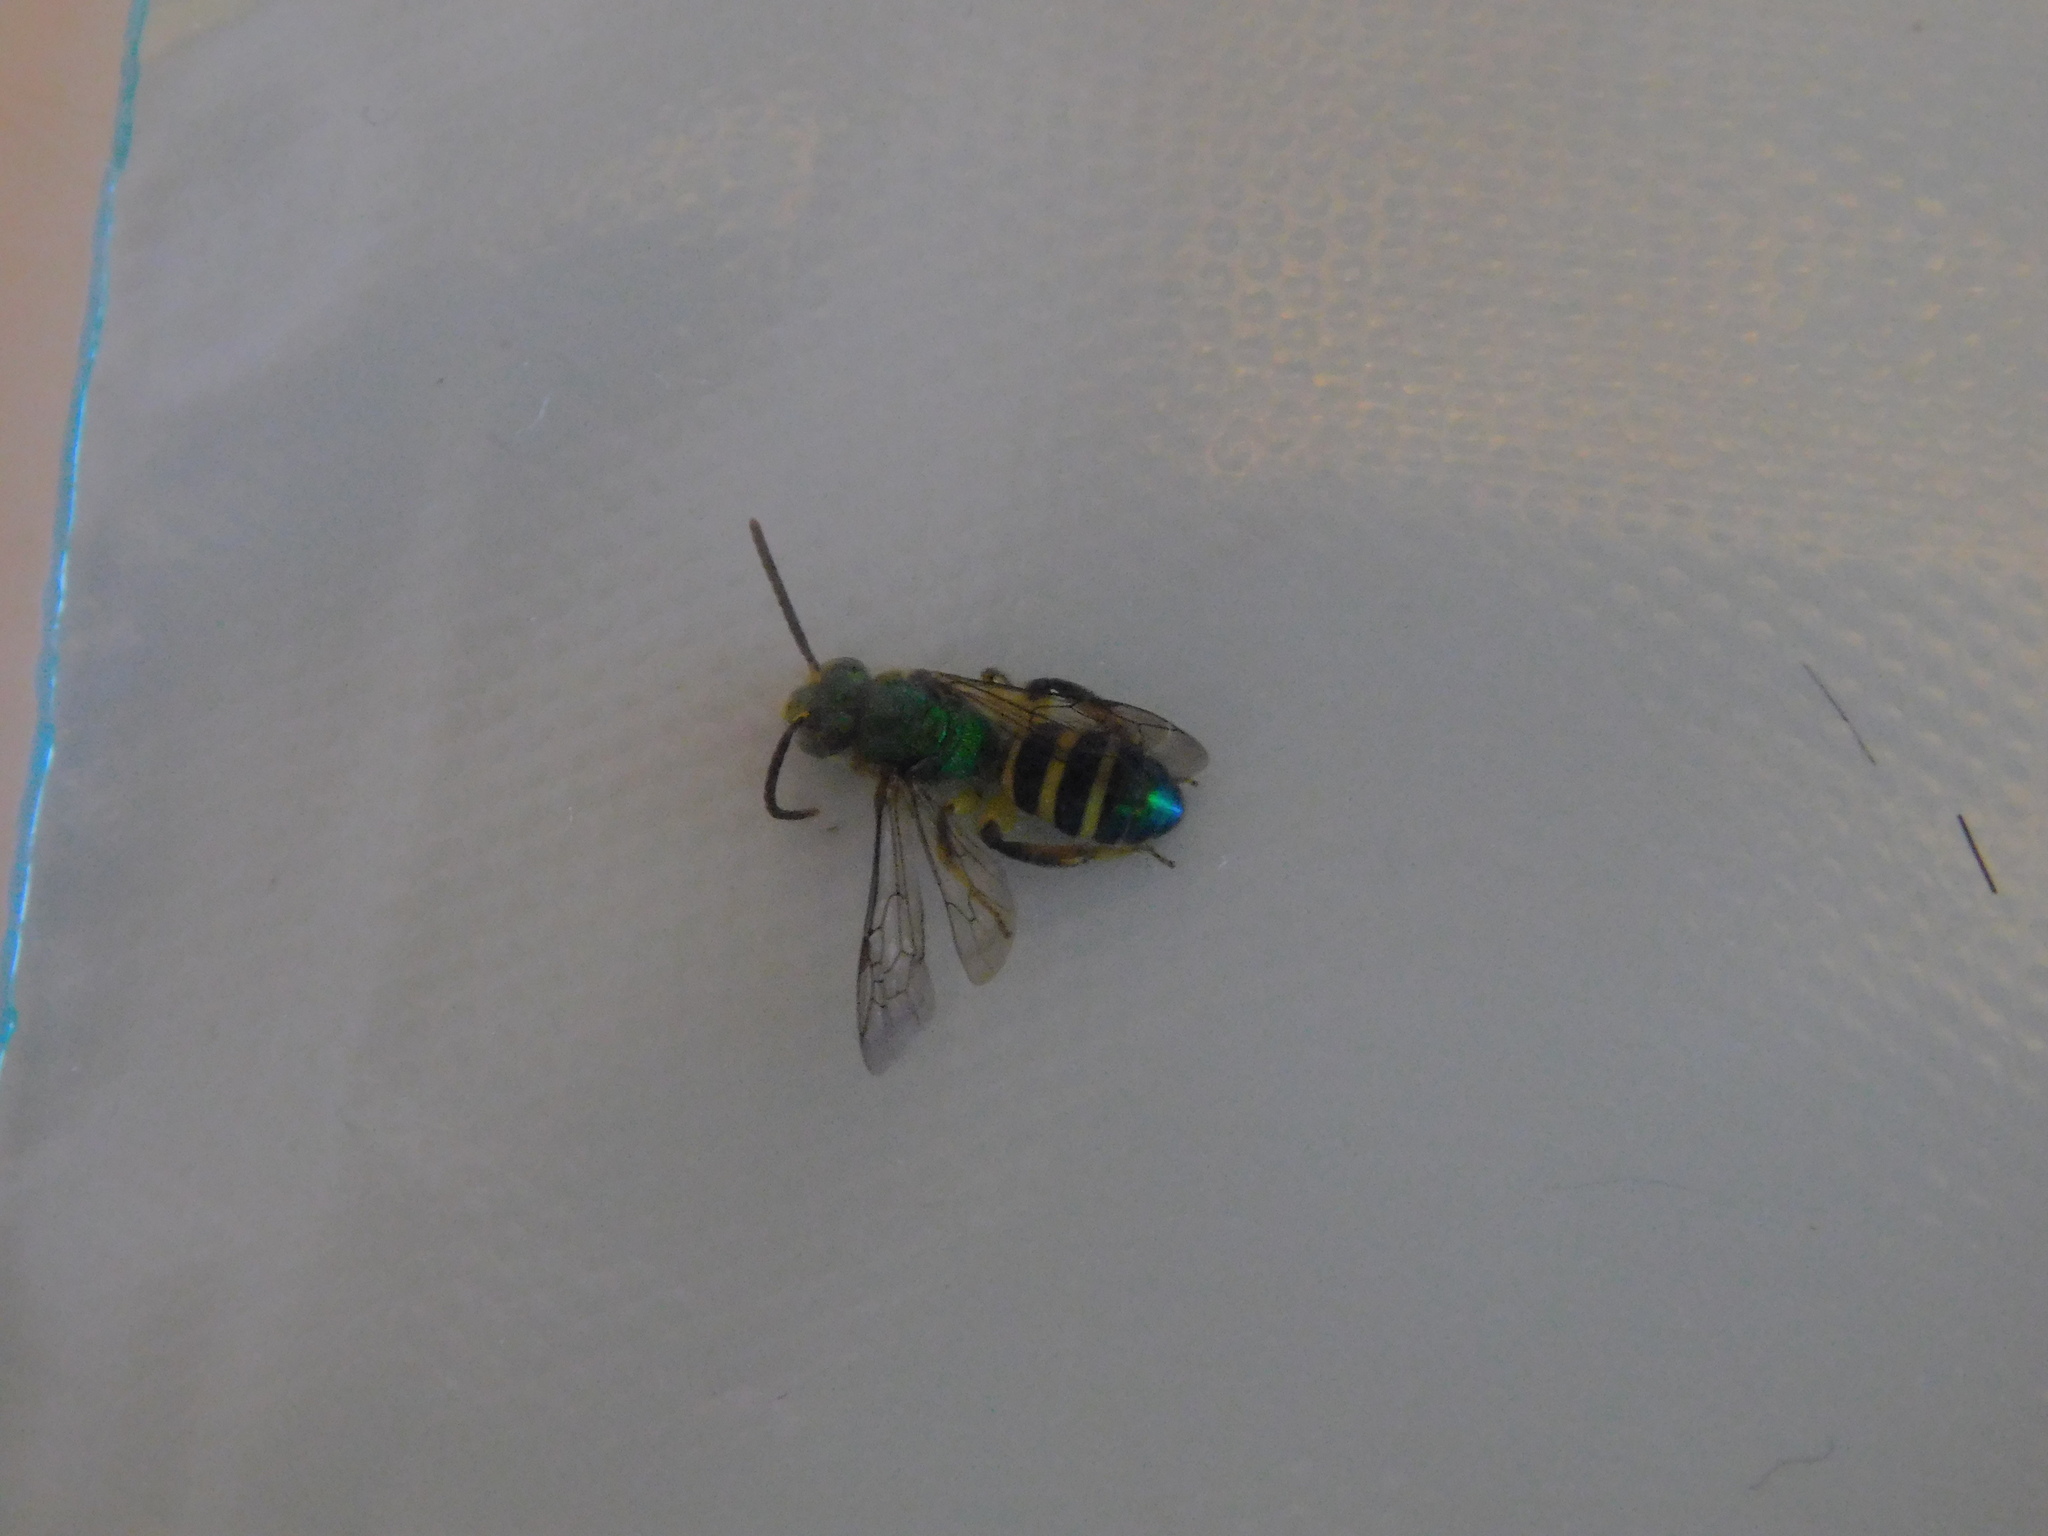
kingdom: Animalia
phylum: Arthropoda
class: Insecta
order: Hymenoptera
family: Halictidae
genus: Agapostemon
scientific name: Agapostemon poeyi
